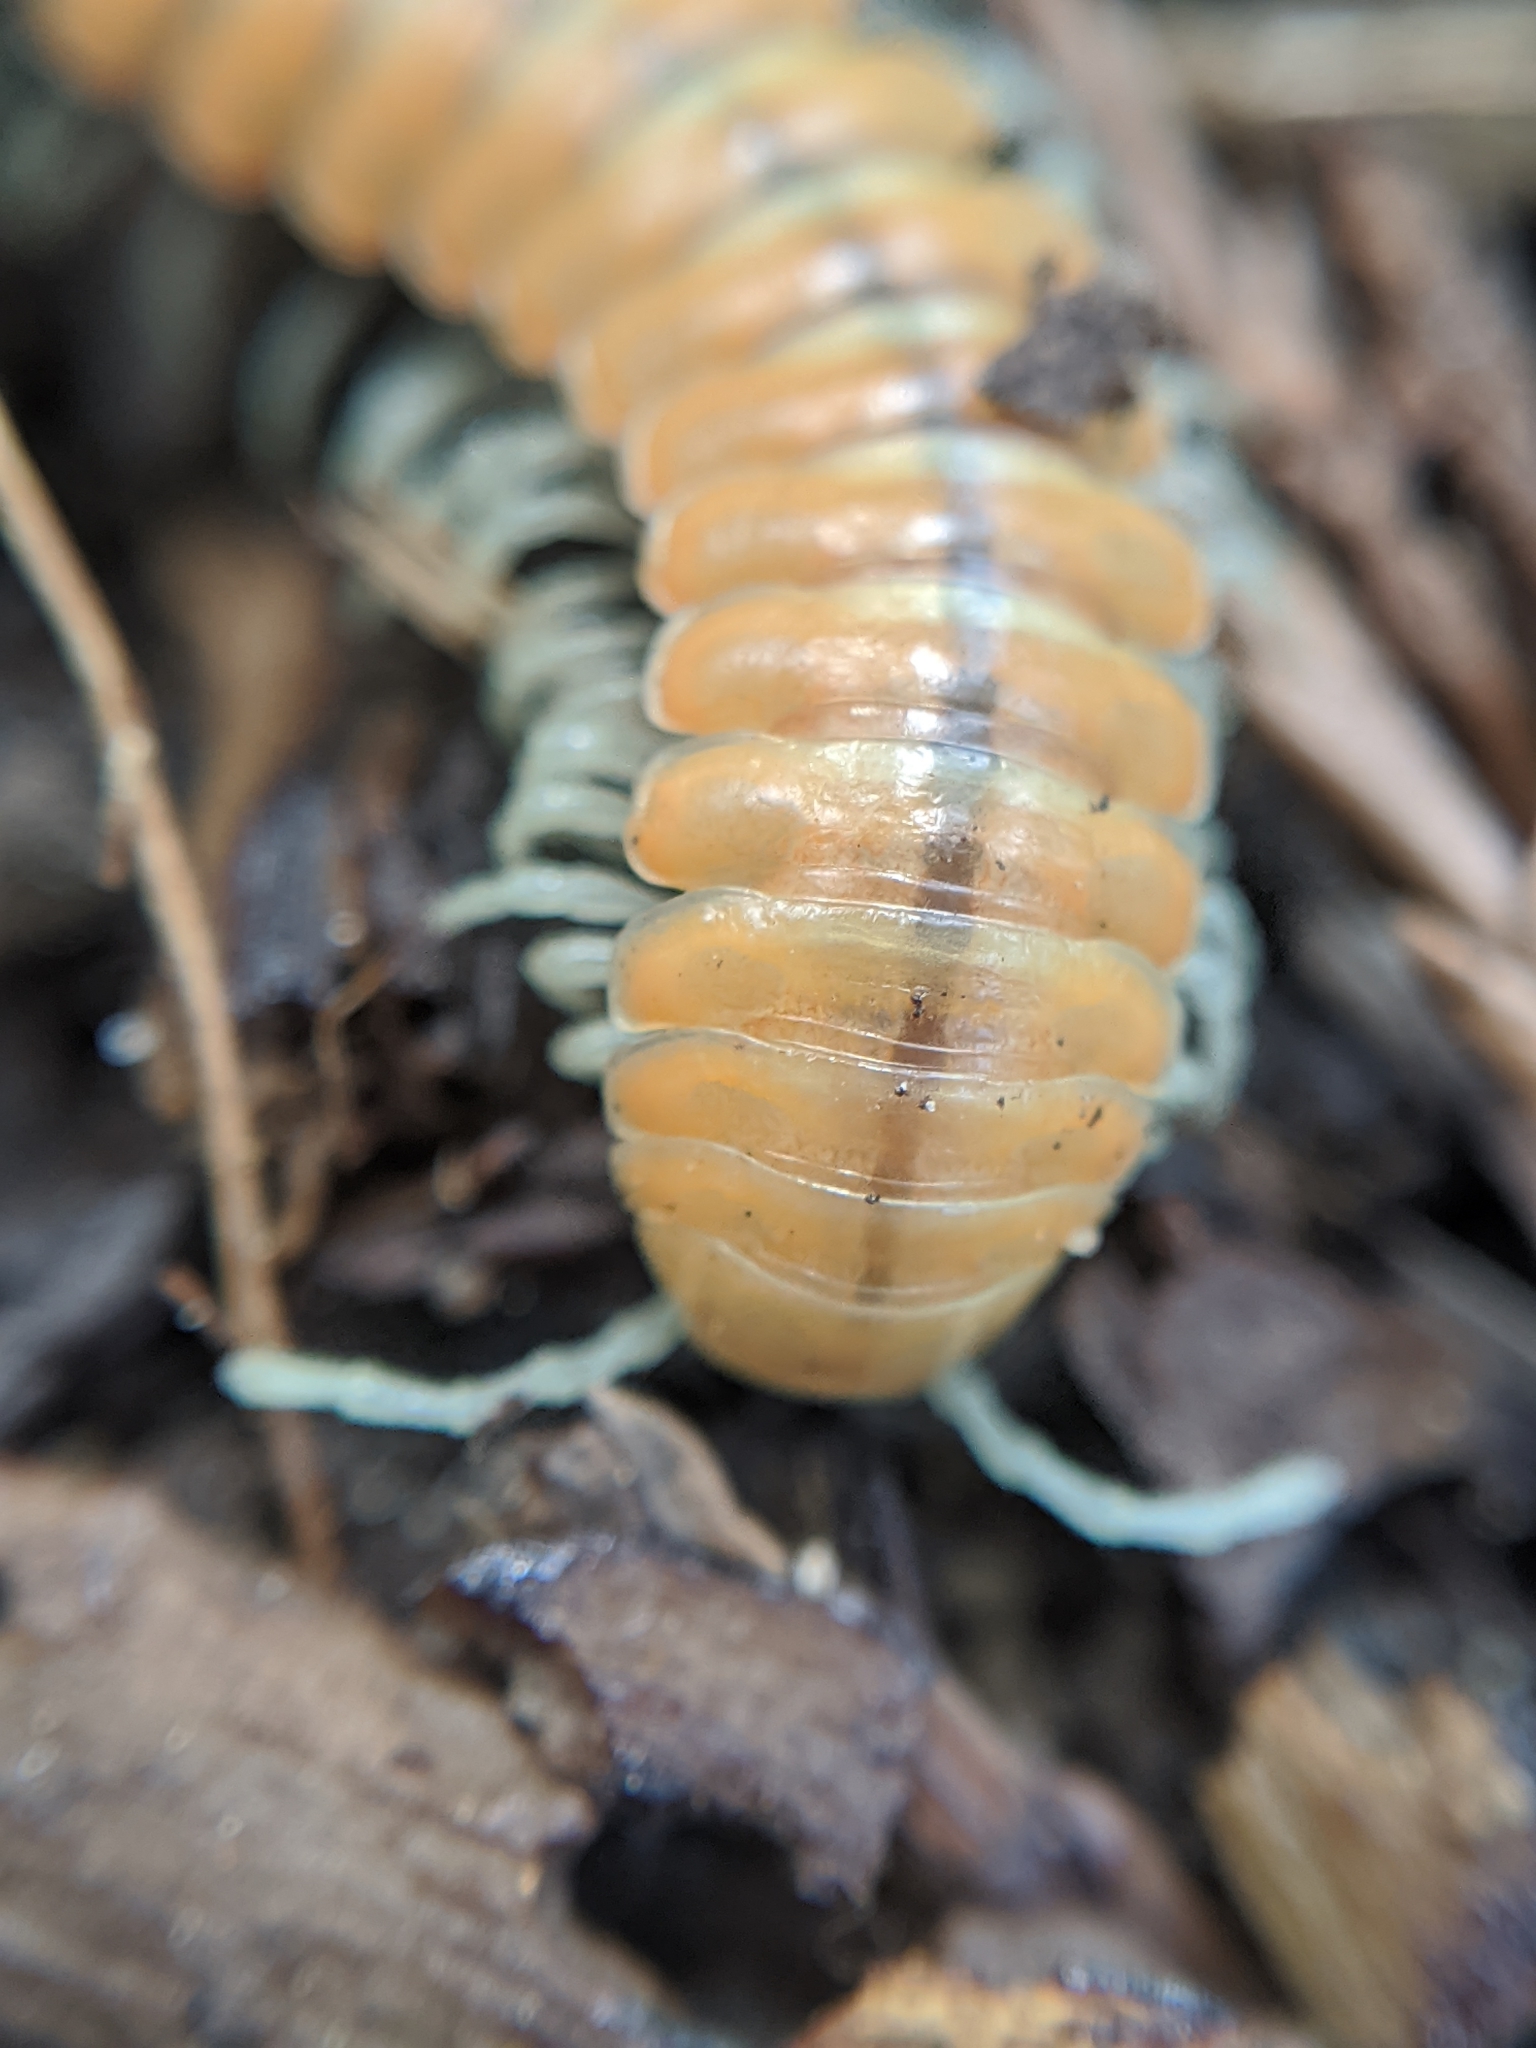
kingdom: Animalia
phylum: Arthropoda
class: Diplopoda
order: Polydesmida
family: Xystodesmidae
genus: Motyxia
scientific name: Motyxia tularea
